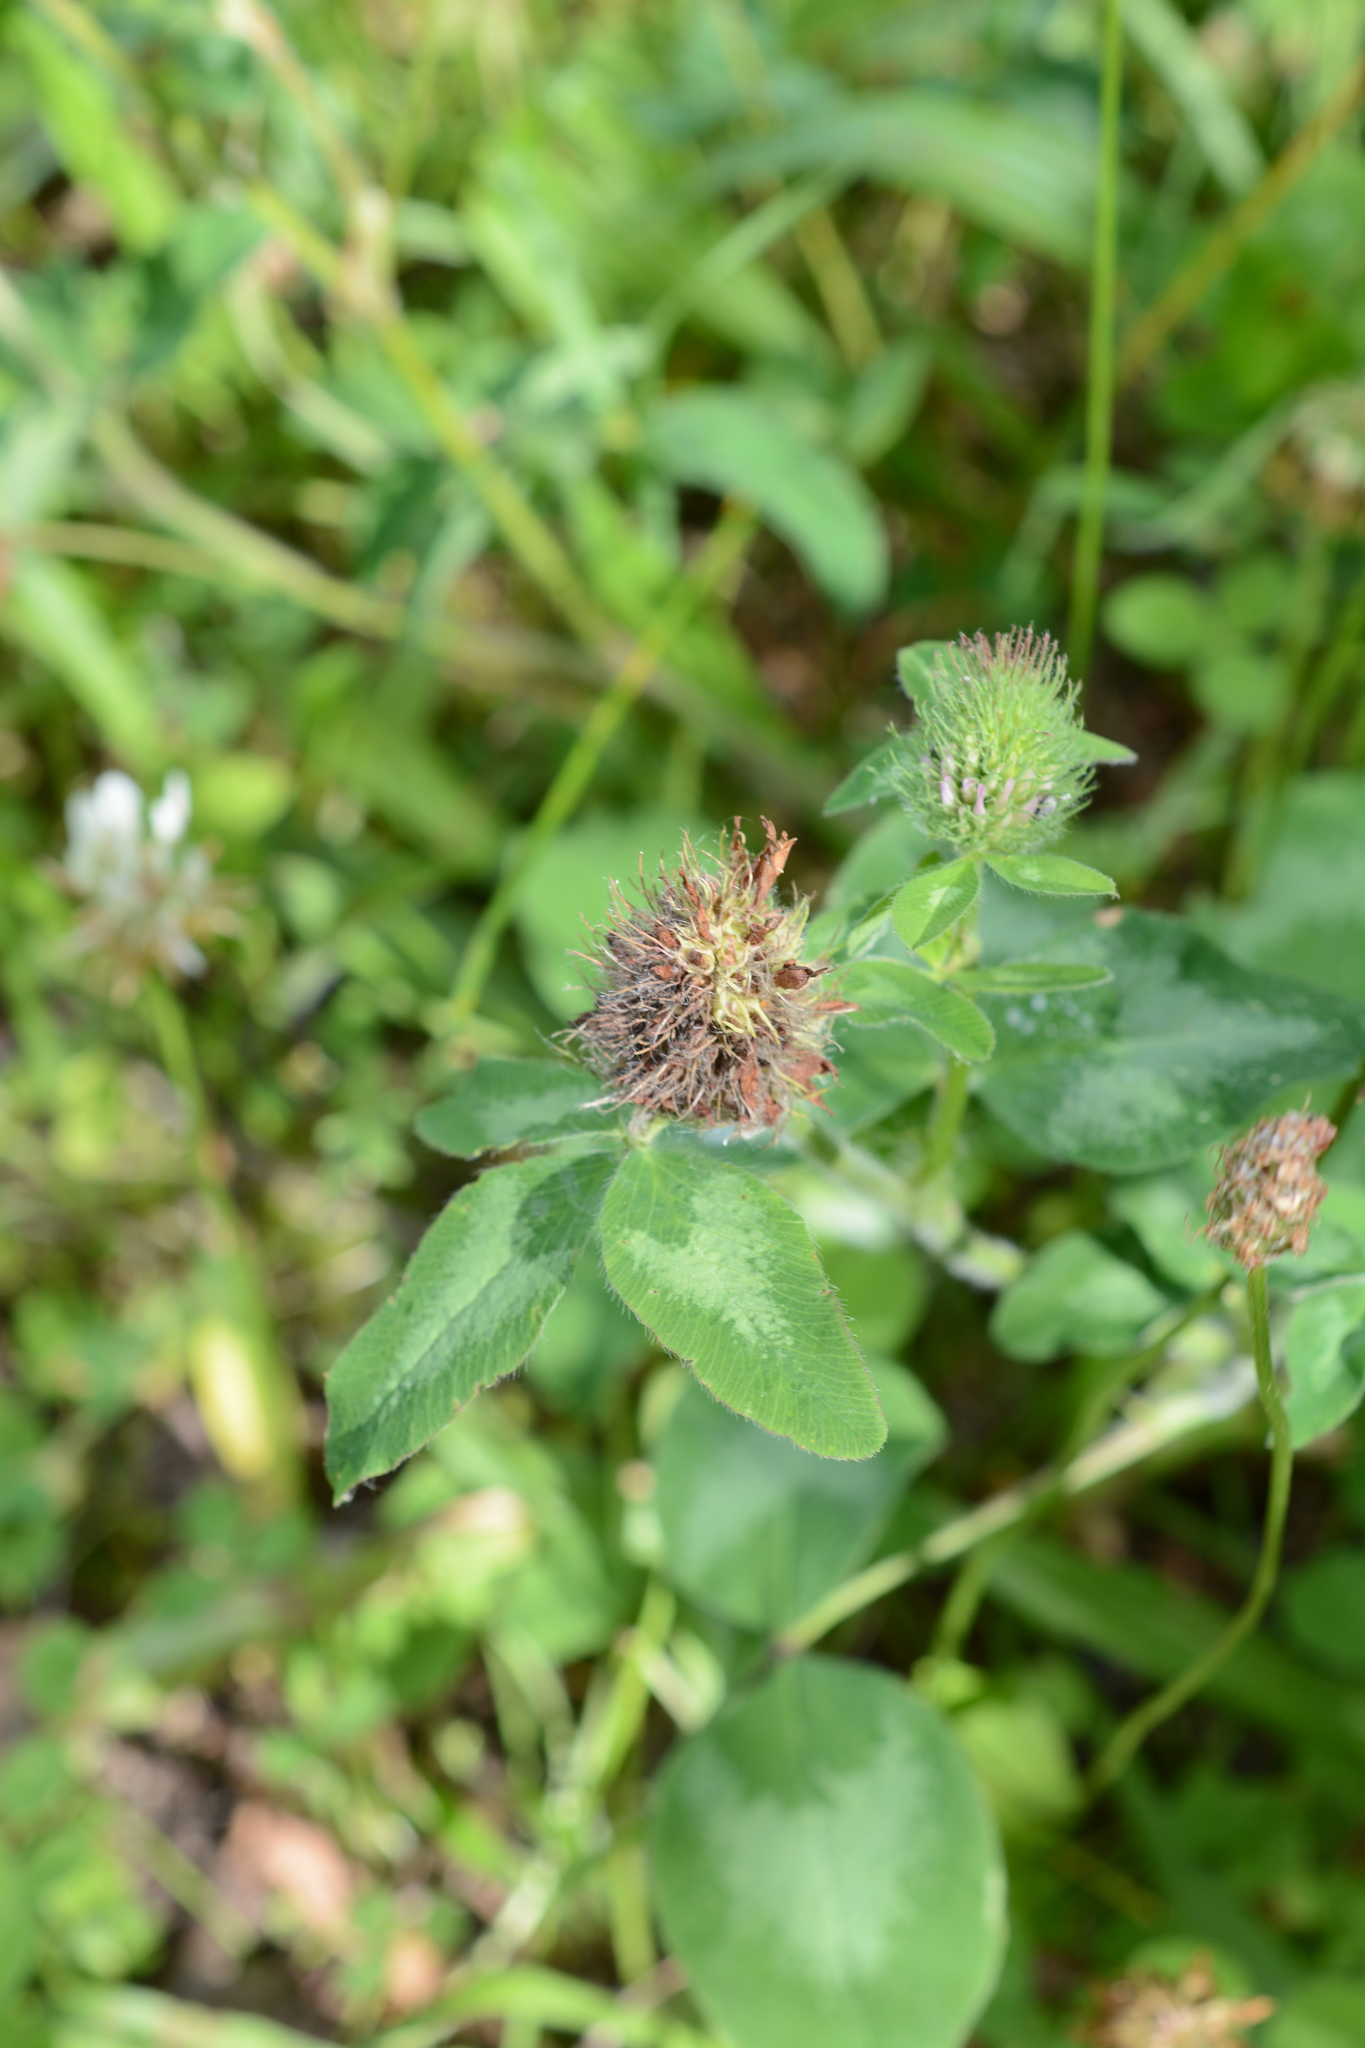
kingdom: Plantae
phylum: Tracheophyta
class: Magnoliopsida
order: Fabales
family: Fabaceae
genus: Trifolium
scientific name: Trifolium pratense
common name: Red clover
